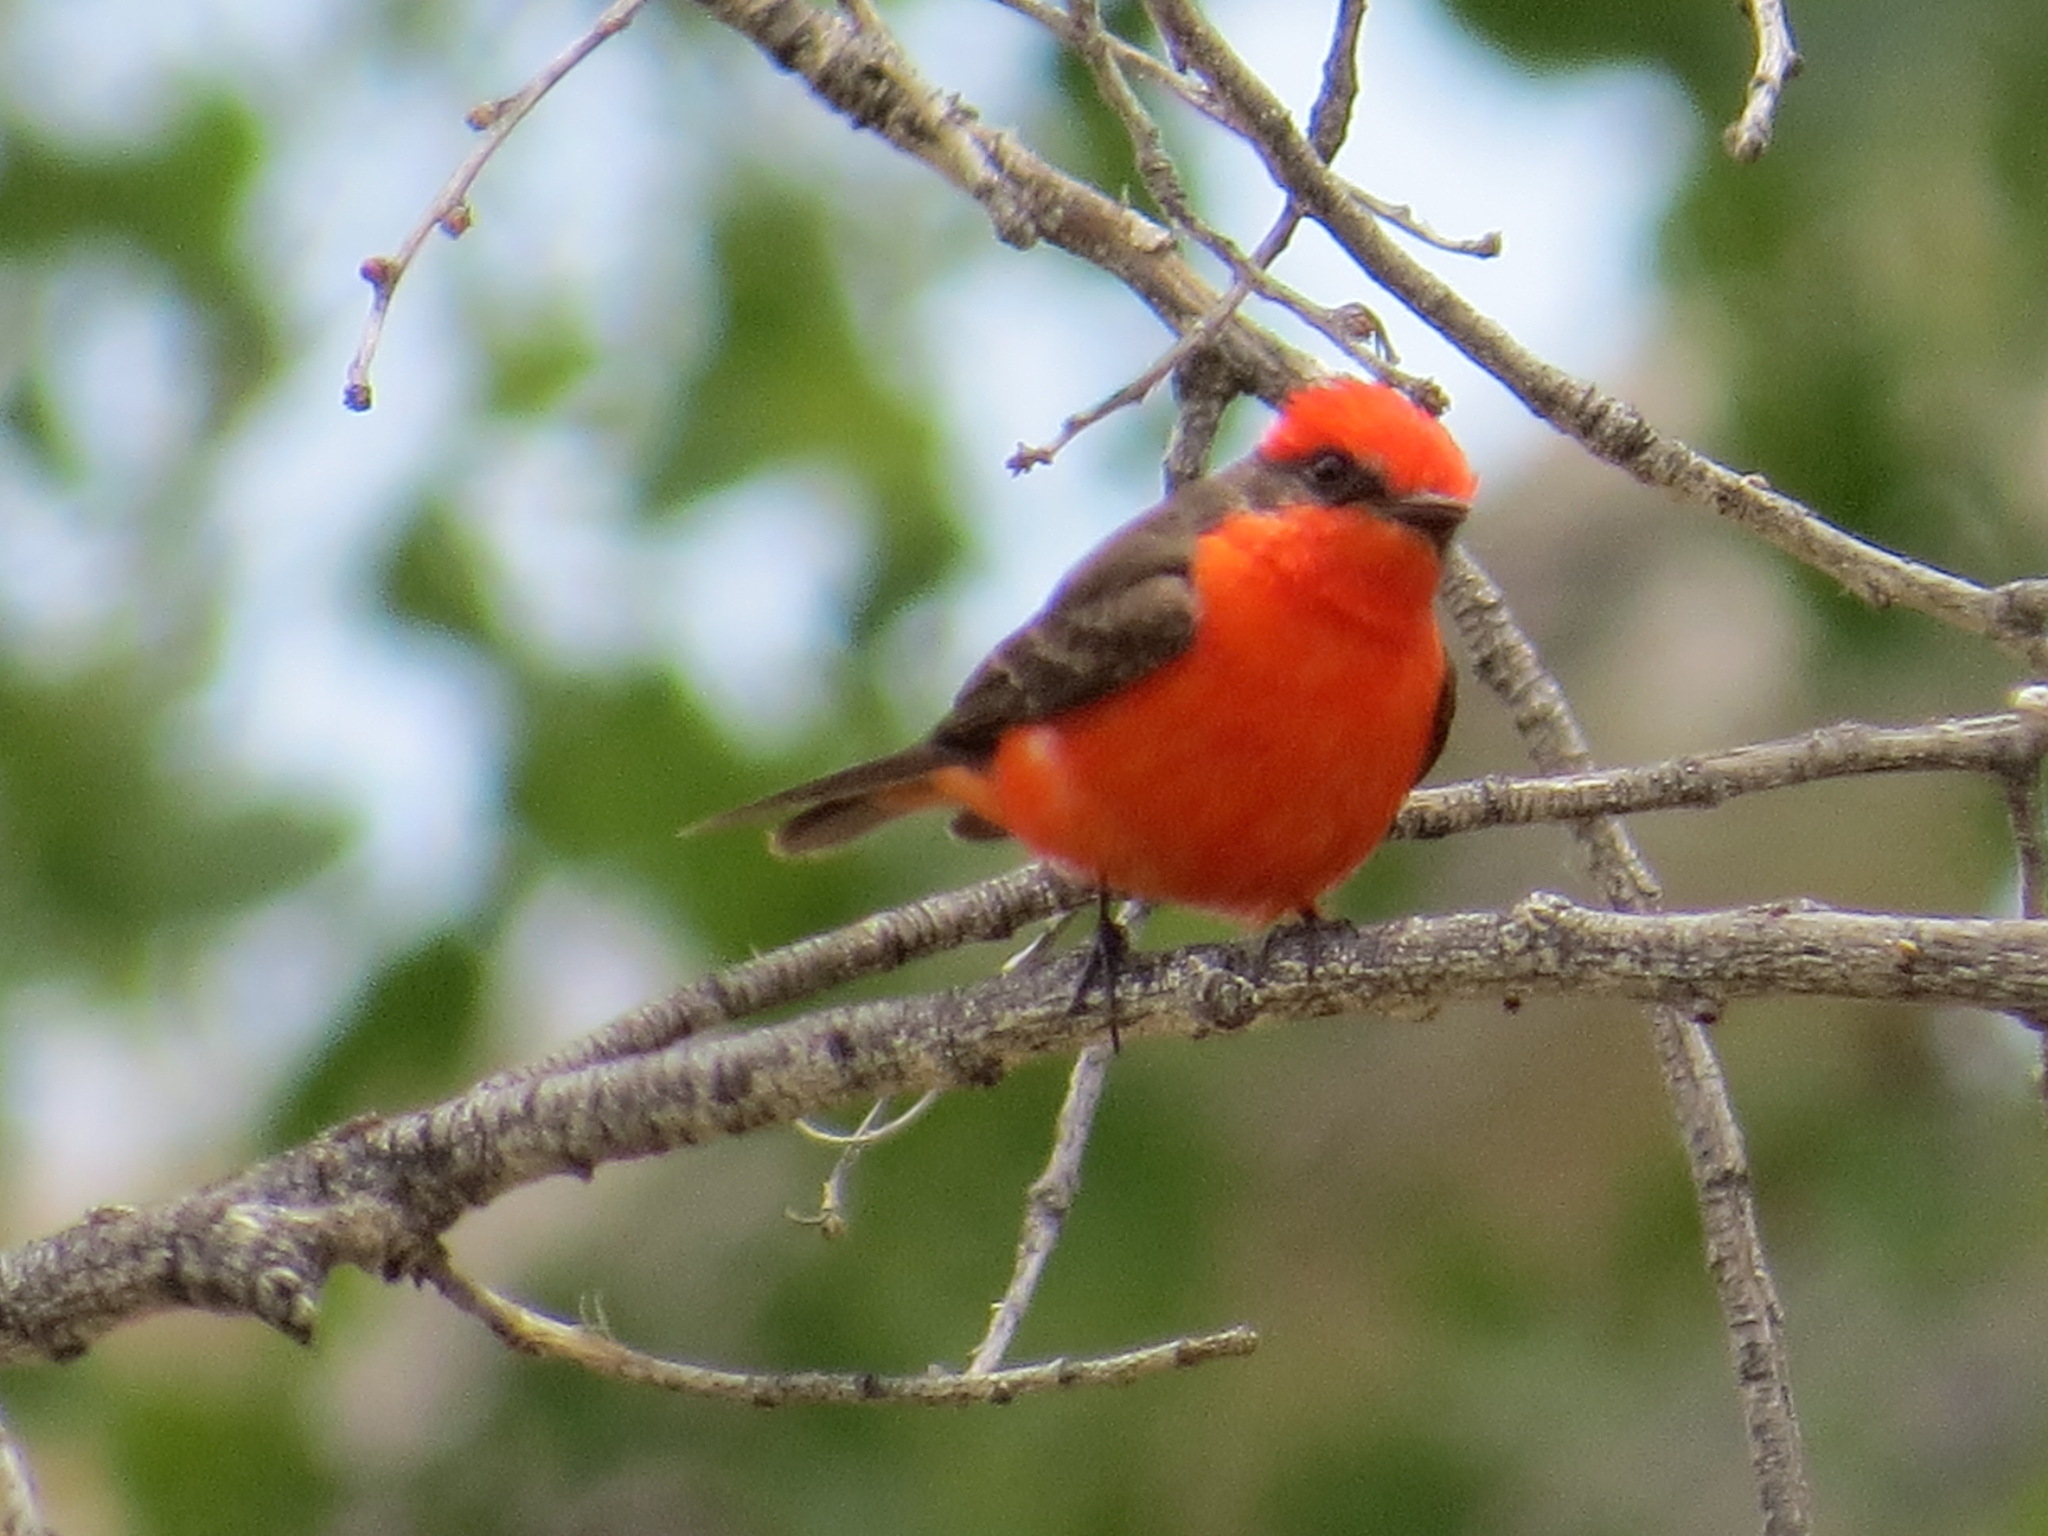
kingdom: Animalia
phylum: Chordata
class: Aves
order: Passeriformes
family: Tyrannidae
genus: Pyrocephalus
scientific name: Pyrocephalus rubinus
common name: Vermilion flycatcher
